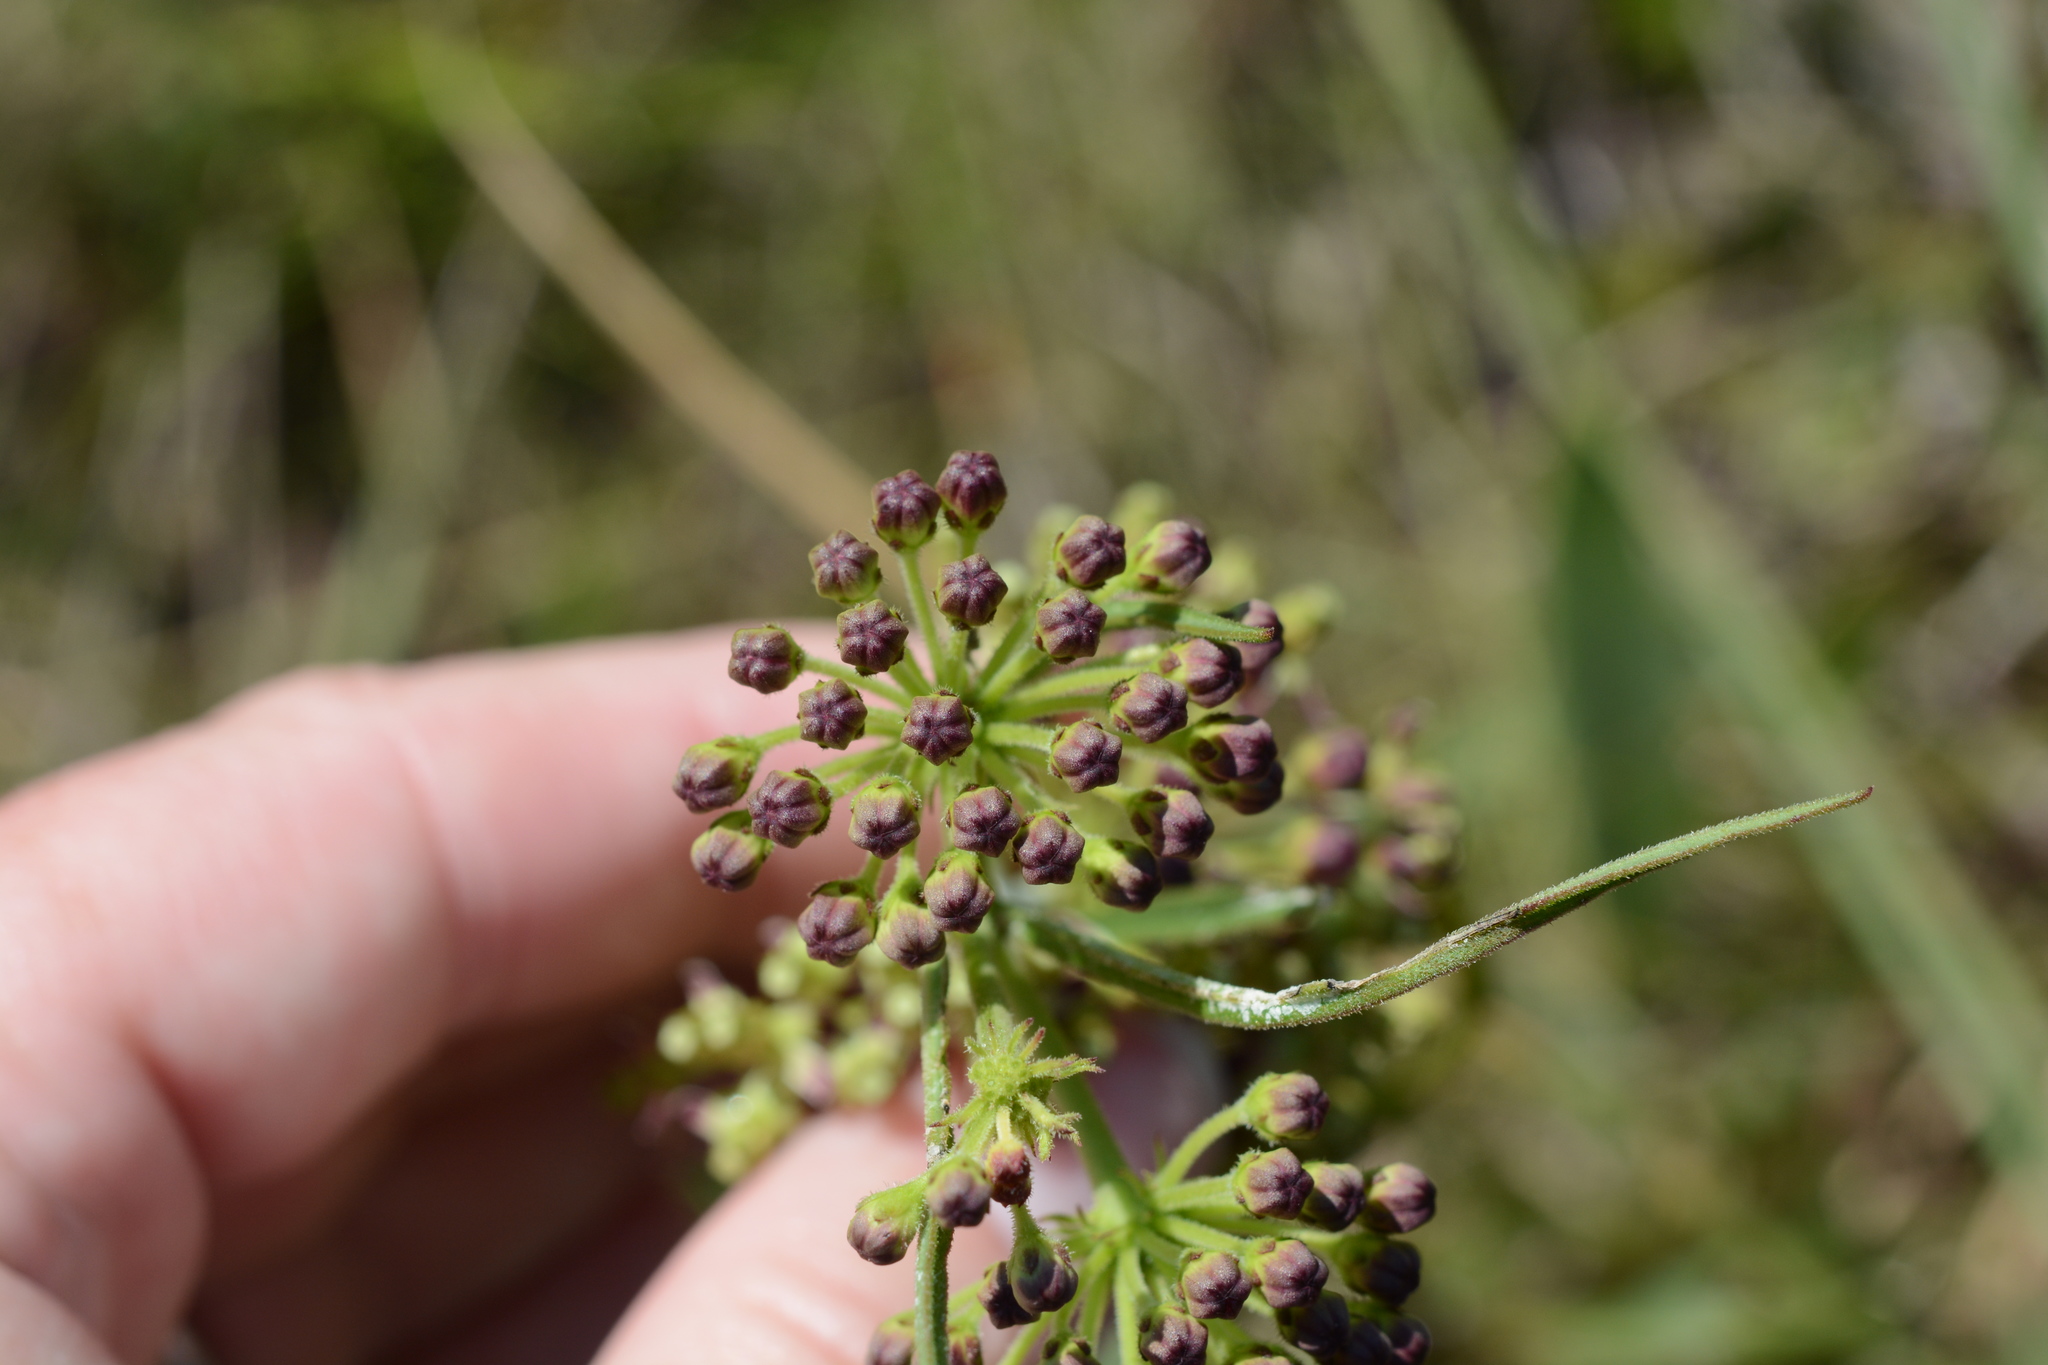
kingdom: Plantae
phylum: Tracheophyta
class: Magnoliopsida
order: Gentianales
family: Apocynaceae
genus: Asclepias
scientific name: Asclepias hirtella
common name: Prairie milkweed
